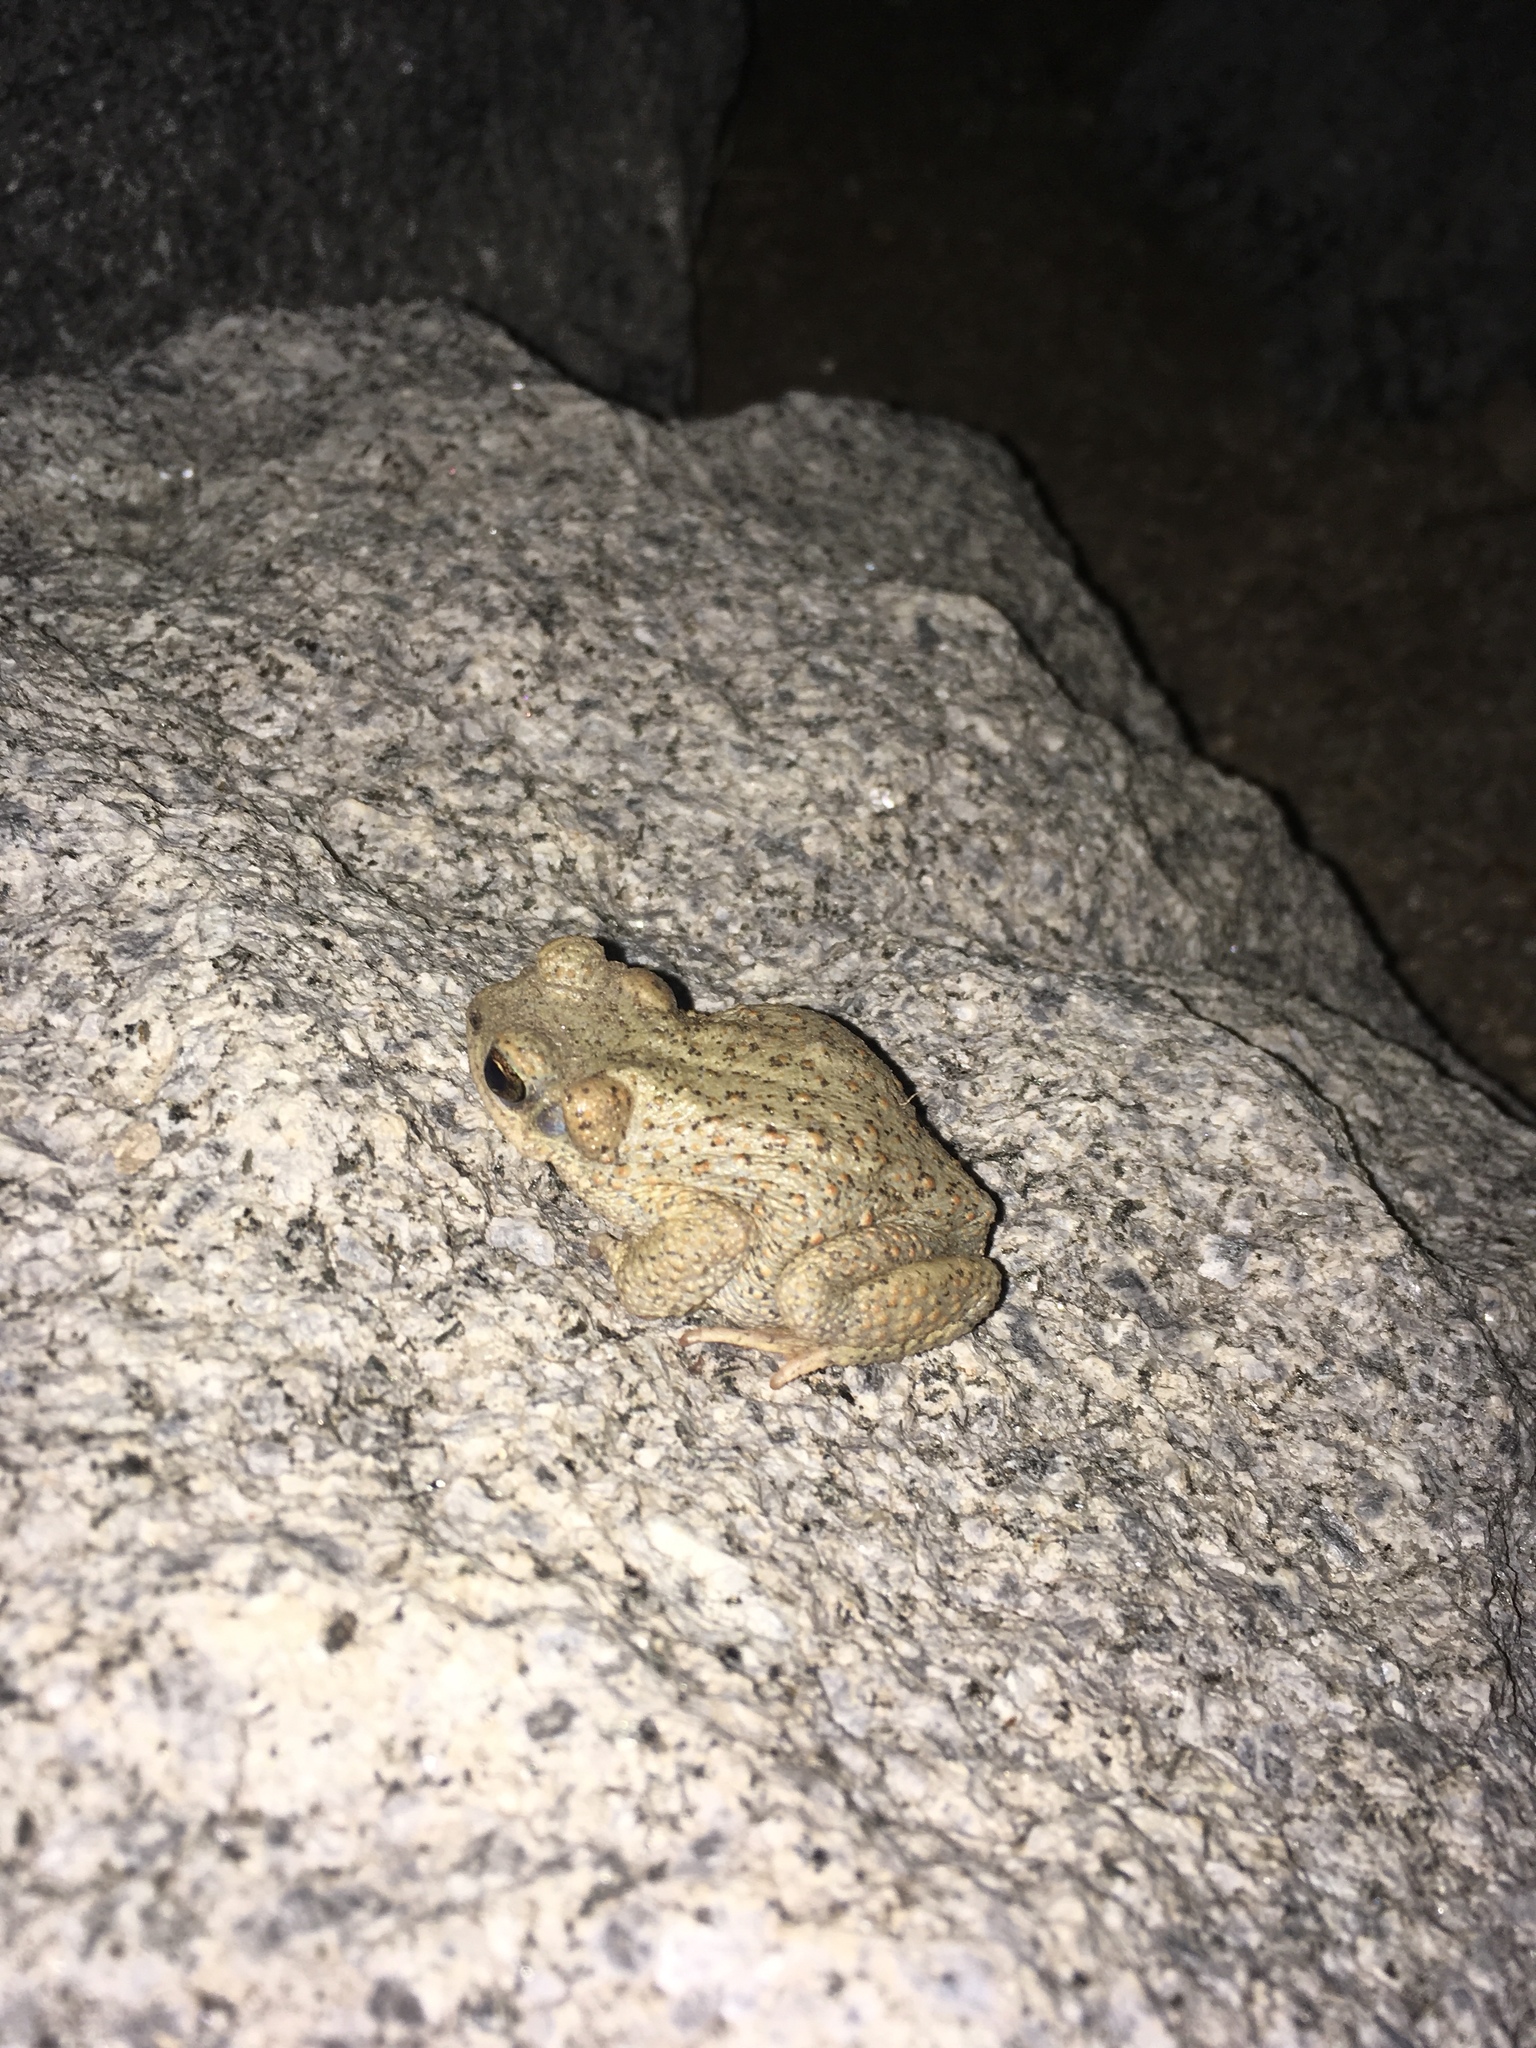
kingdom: Animalia
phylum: Chordata
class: Amphibia
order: Anura
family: Bufonidae
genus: Anaxyrus
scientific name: Anaxyrus punctatus
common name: Red-spotted toad
